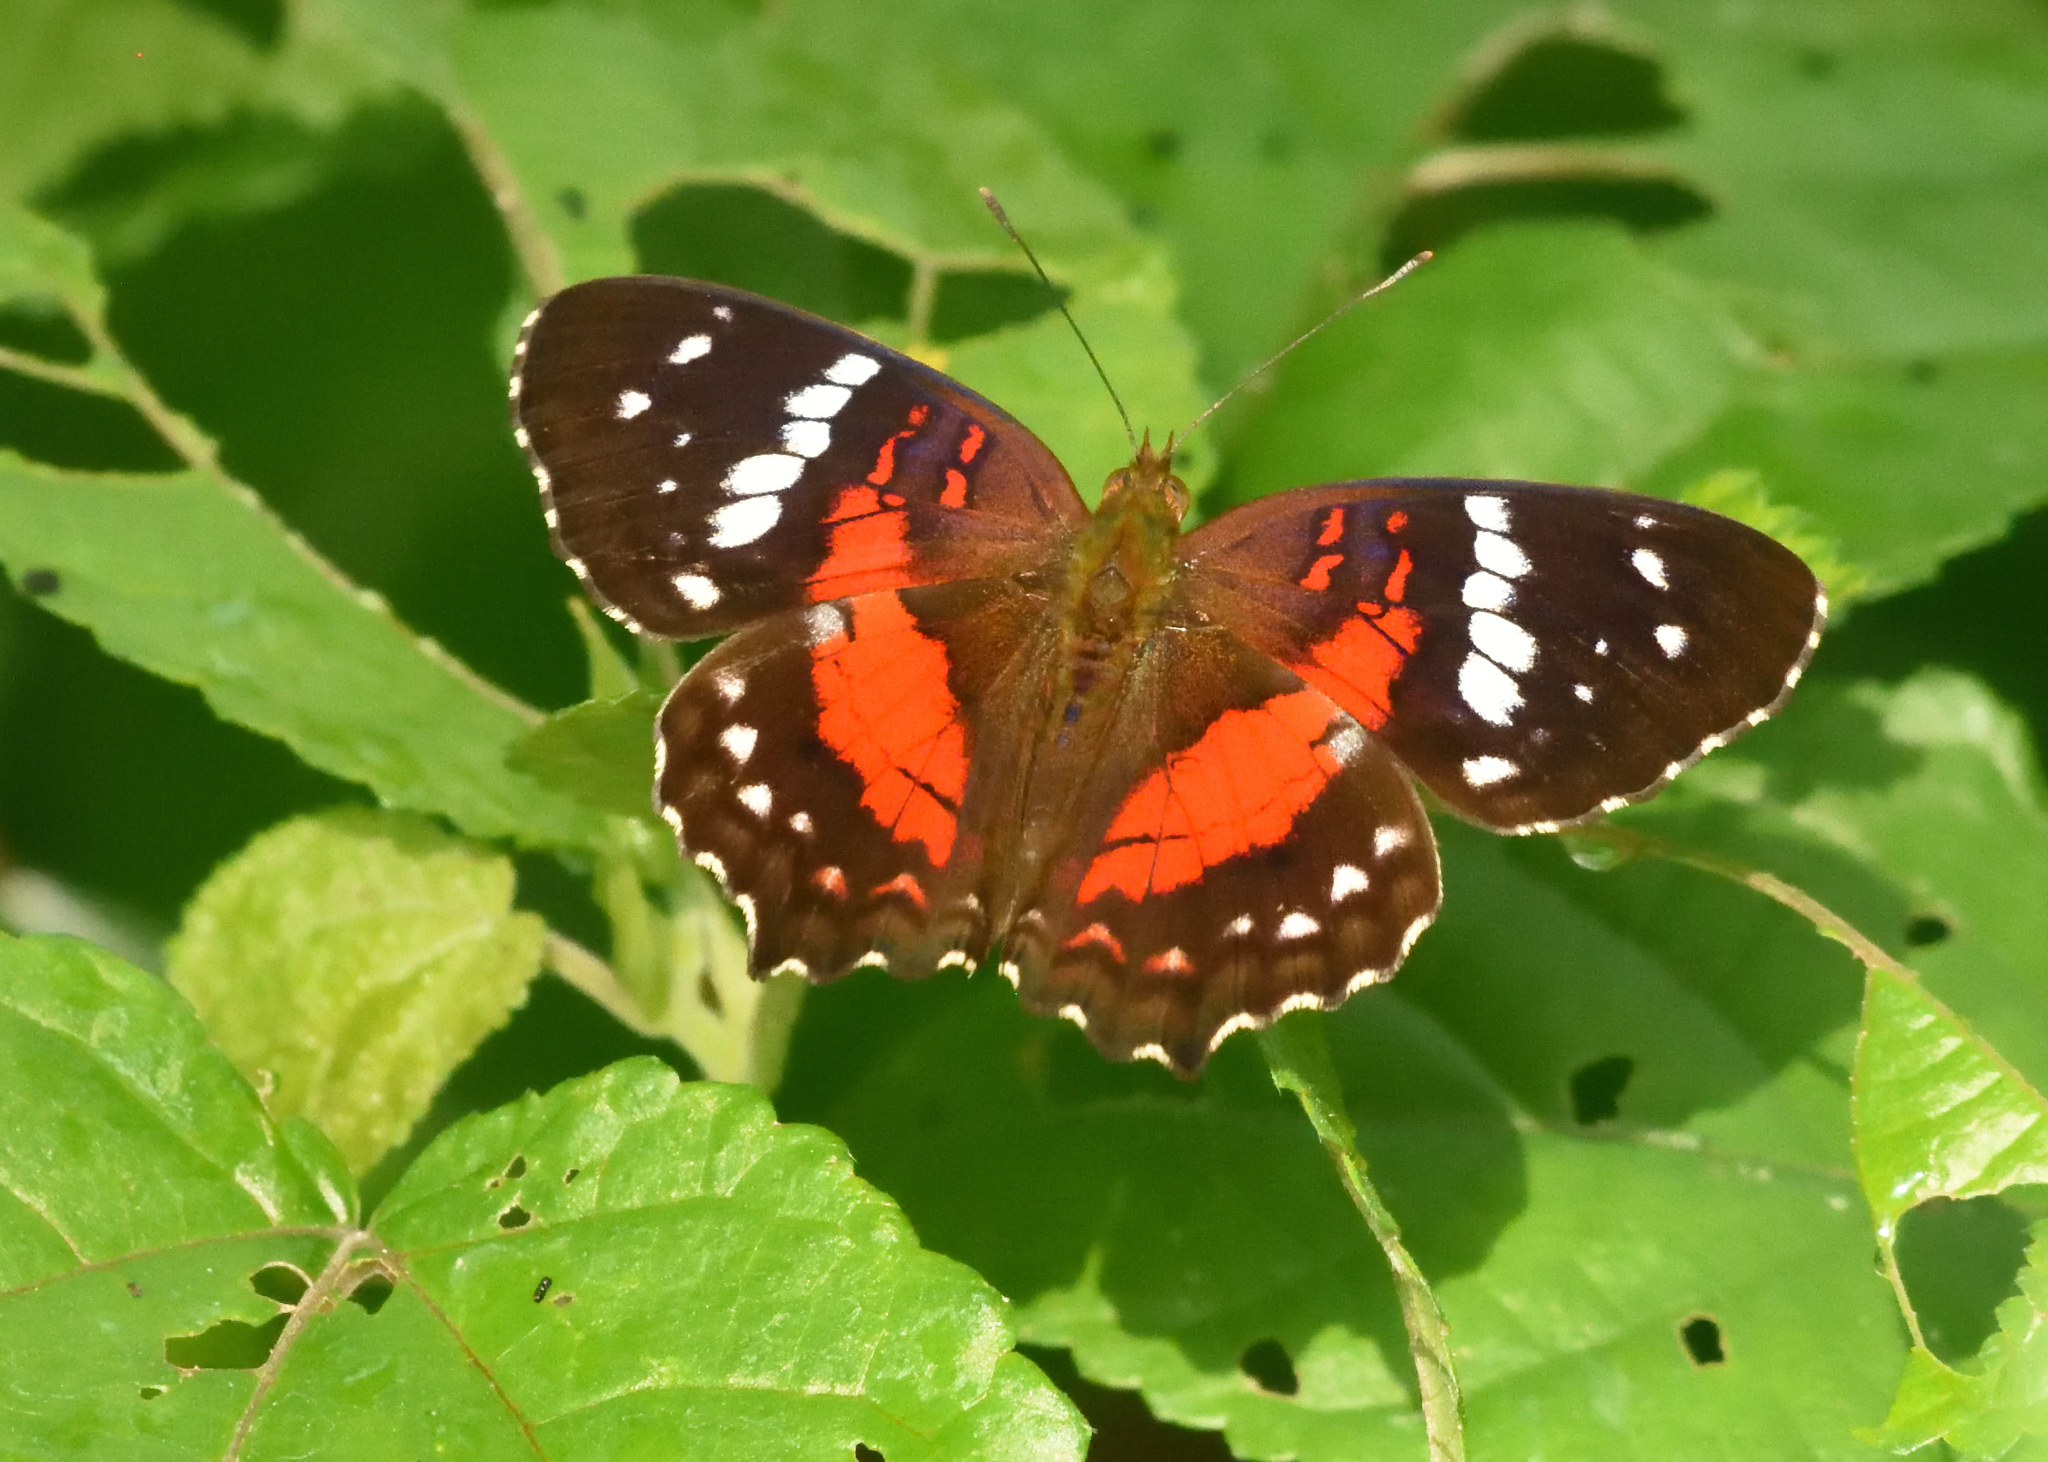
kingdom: Animalia
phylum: Arthropoda
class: Insecta
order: Lepidoptera
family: Nymphalidae
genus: Anartia
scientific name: Anartia amathea
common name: Red peacock
